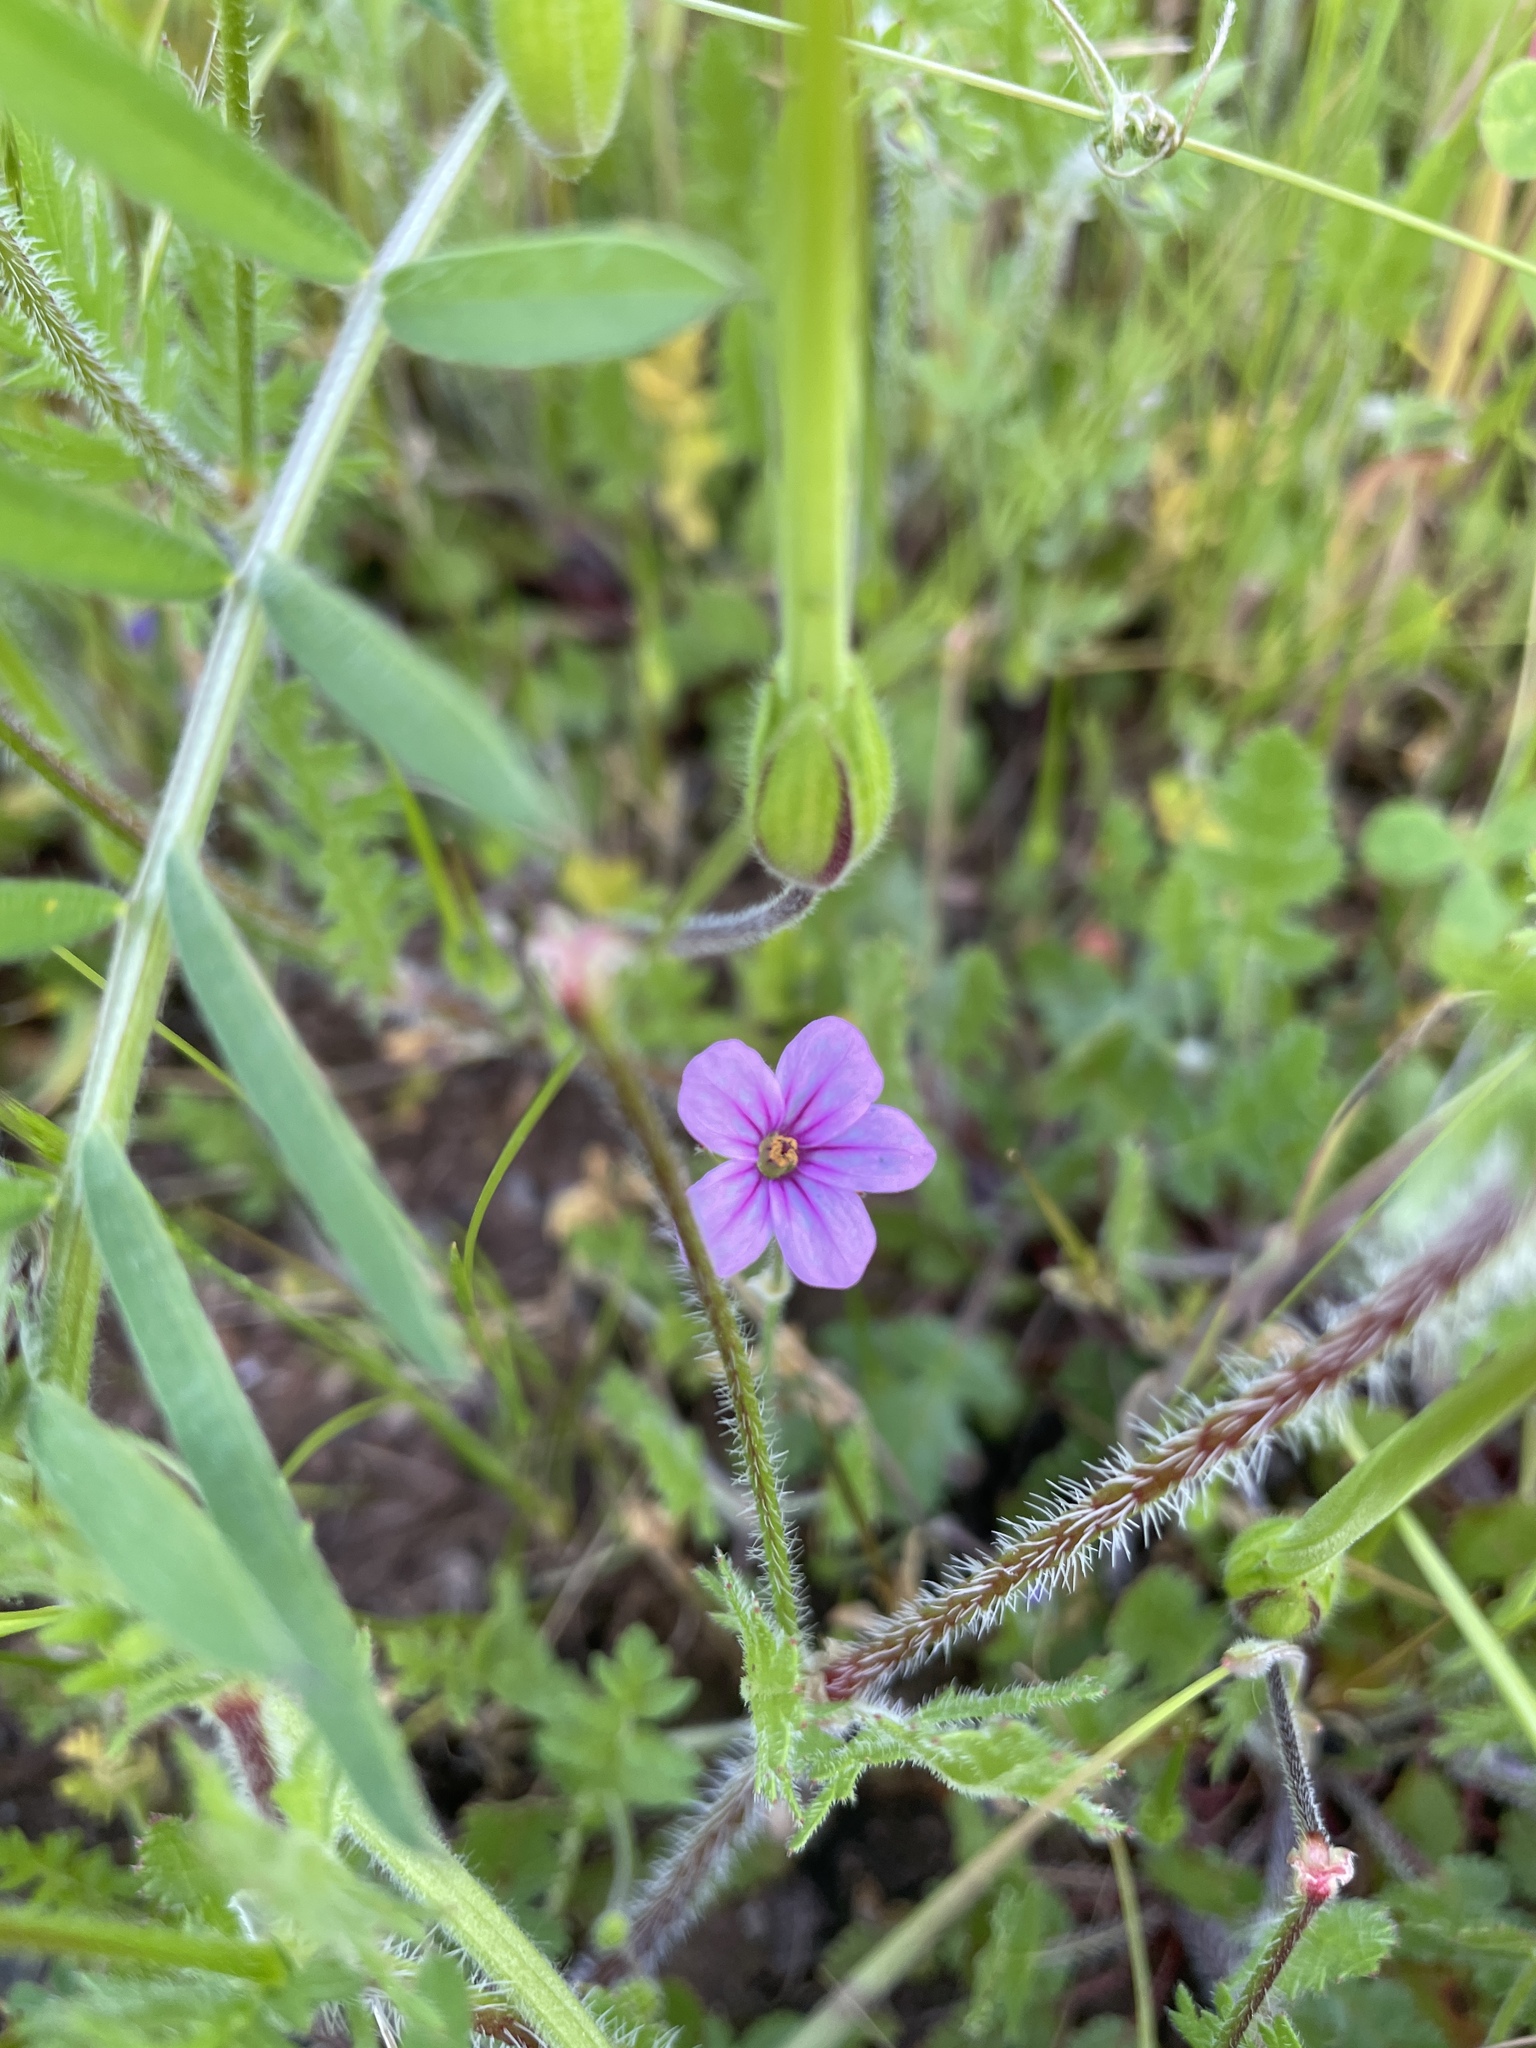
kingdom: Plantae
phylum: Tracheophyta
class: Magnoliopsida
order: Geraniales
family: Geraniaceae
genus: Erodium
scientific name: Erodium botrys
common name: Mediterranean stork's-bill
